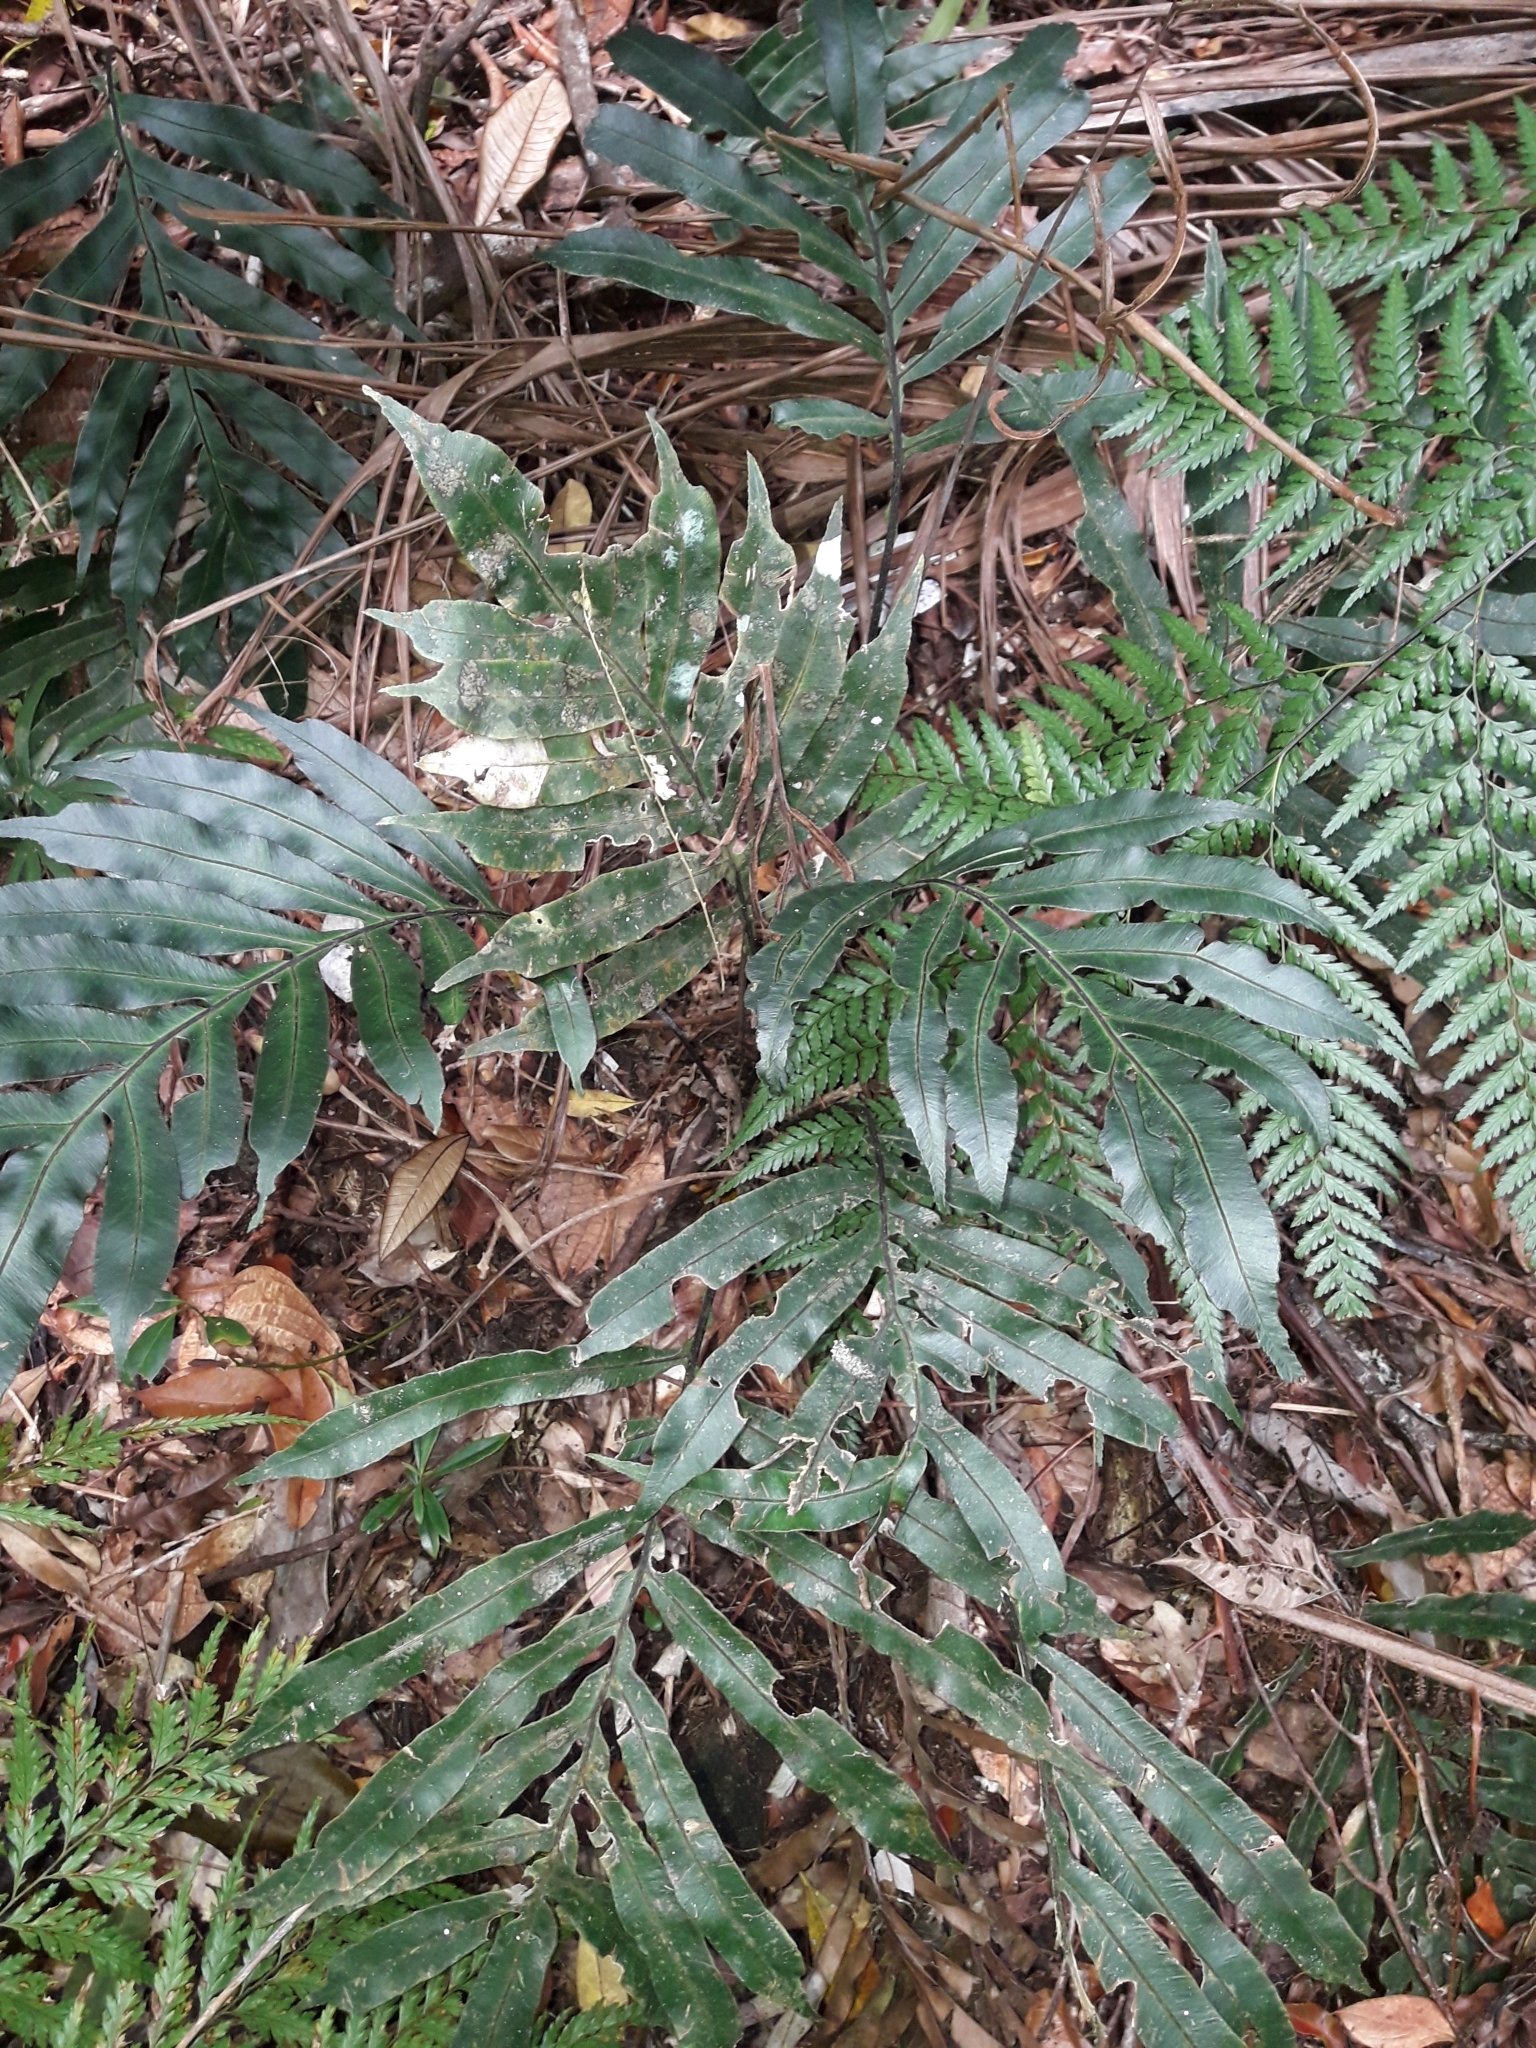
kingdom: Plantae
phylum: Tracheophyta
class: Polypodiopsida
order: Polypodiales
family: Blechnaceae
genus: Austroblechnum
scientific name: Austroblechnum vieillardii
